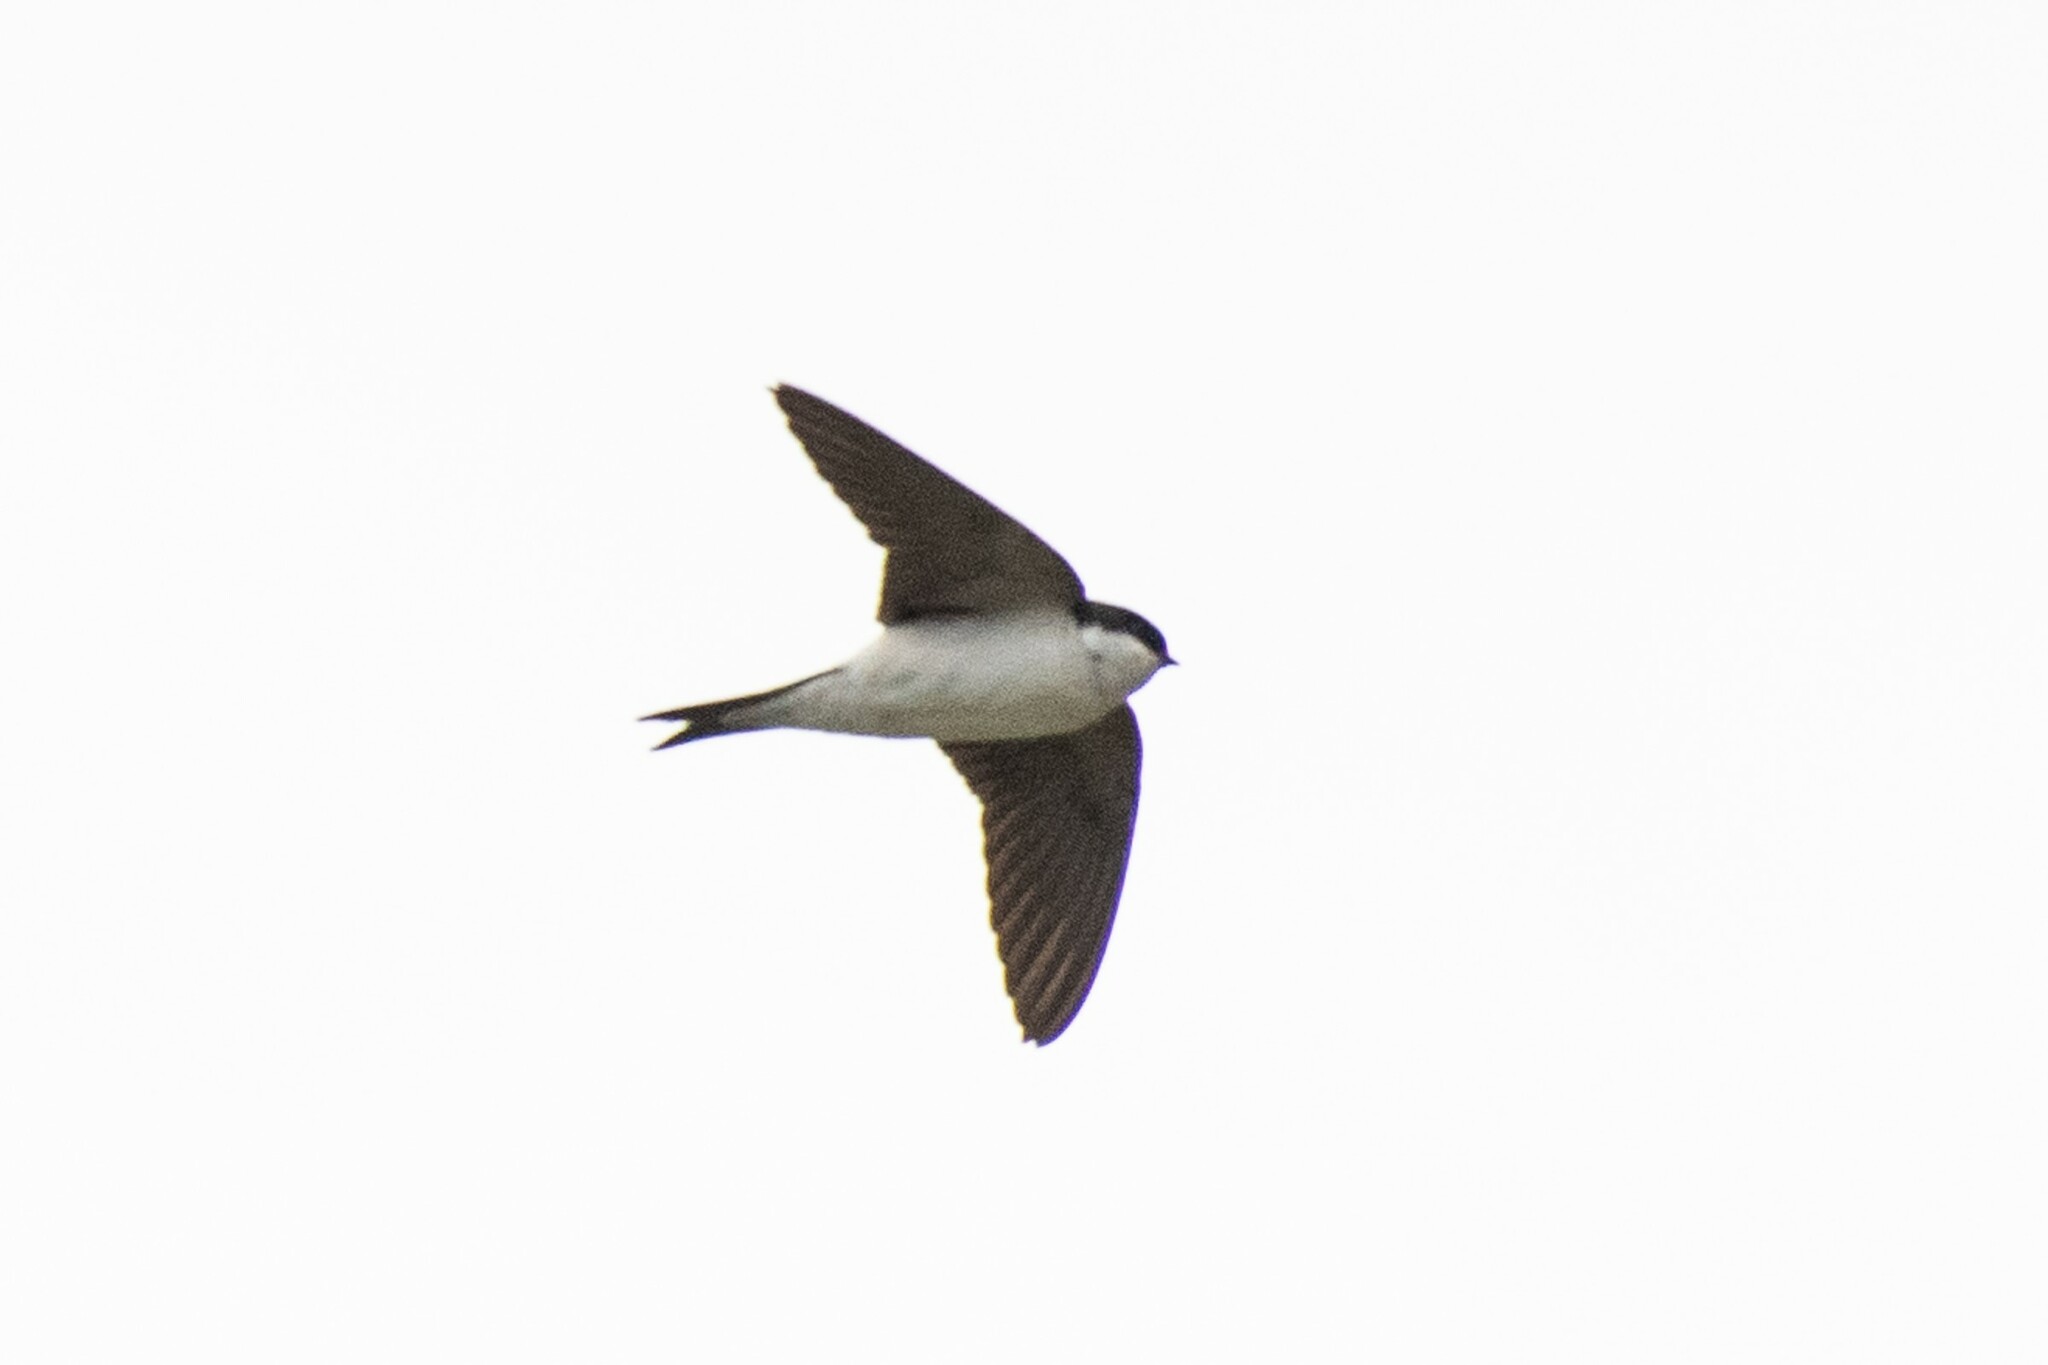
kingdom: Animalia
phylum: Chordata
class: Aves
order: Passeriformes
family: Hirundinidae
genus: Delichon
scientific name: Delichon urbicum
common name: Common house martin
